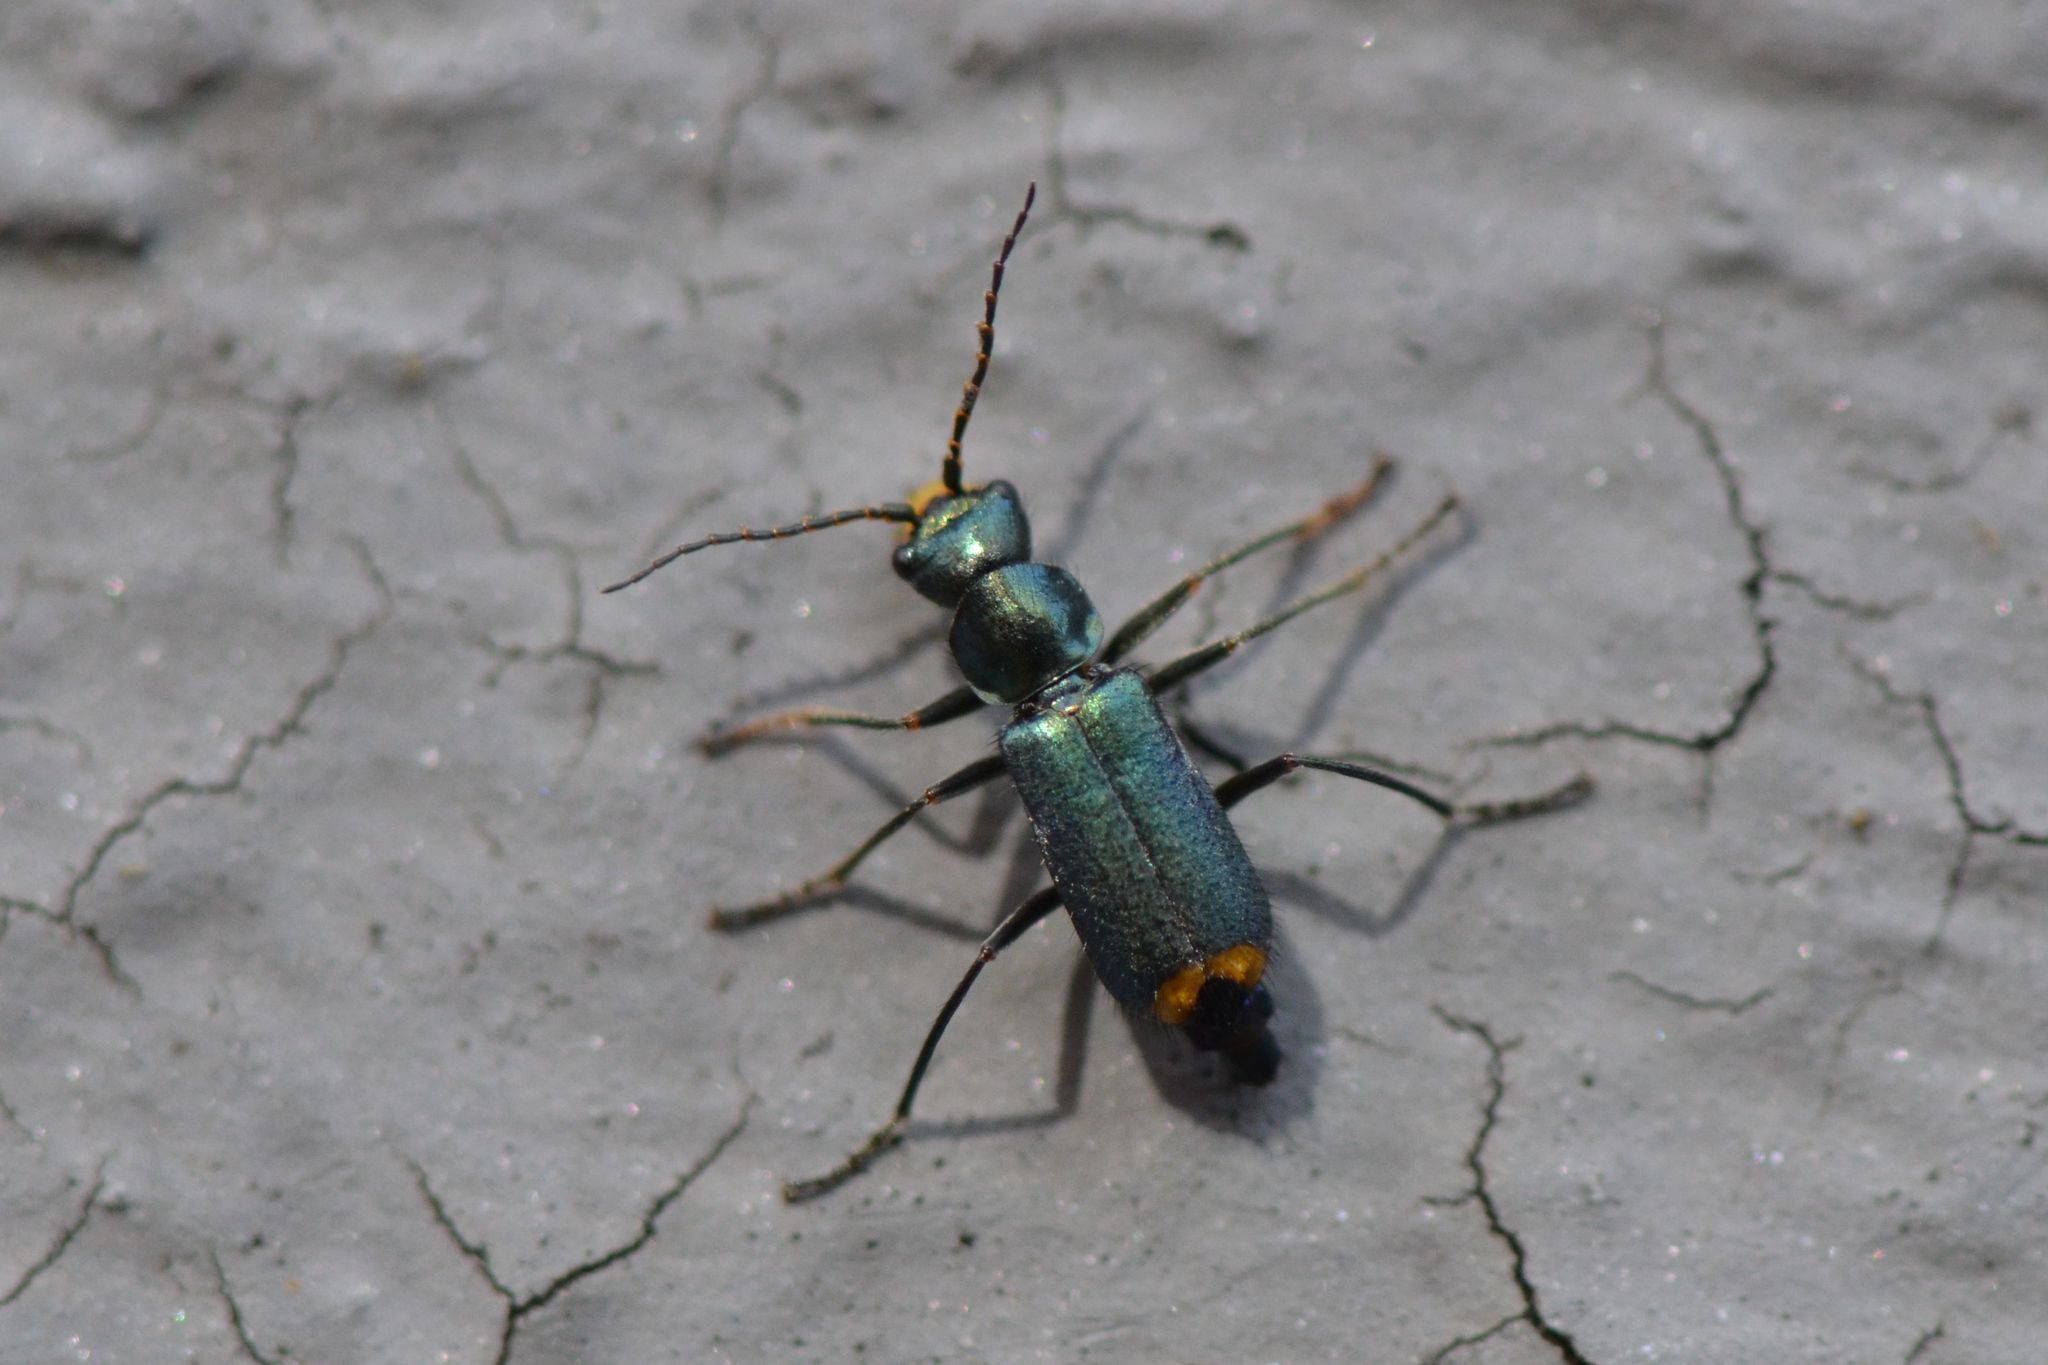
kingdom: Animalia
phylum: Arthropoda
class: Insecta
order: Coleoptera
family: Malachiidae
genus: Clanoptilus
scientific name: Clanoptilus marginellus
